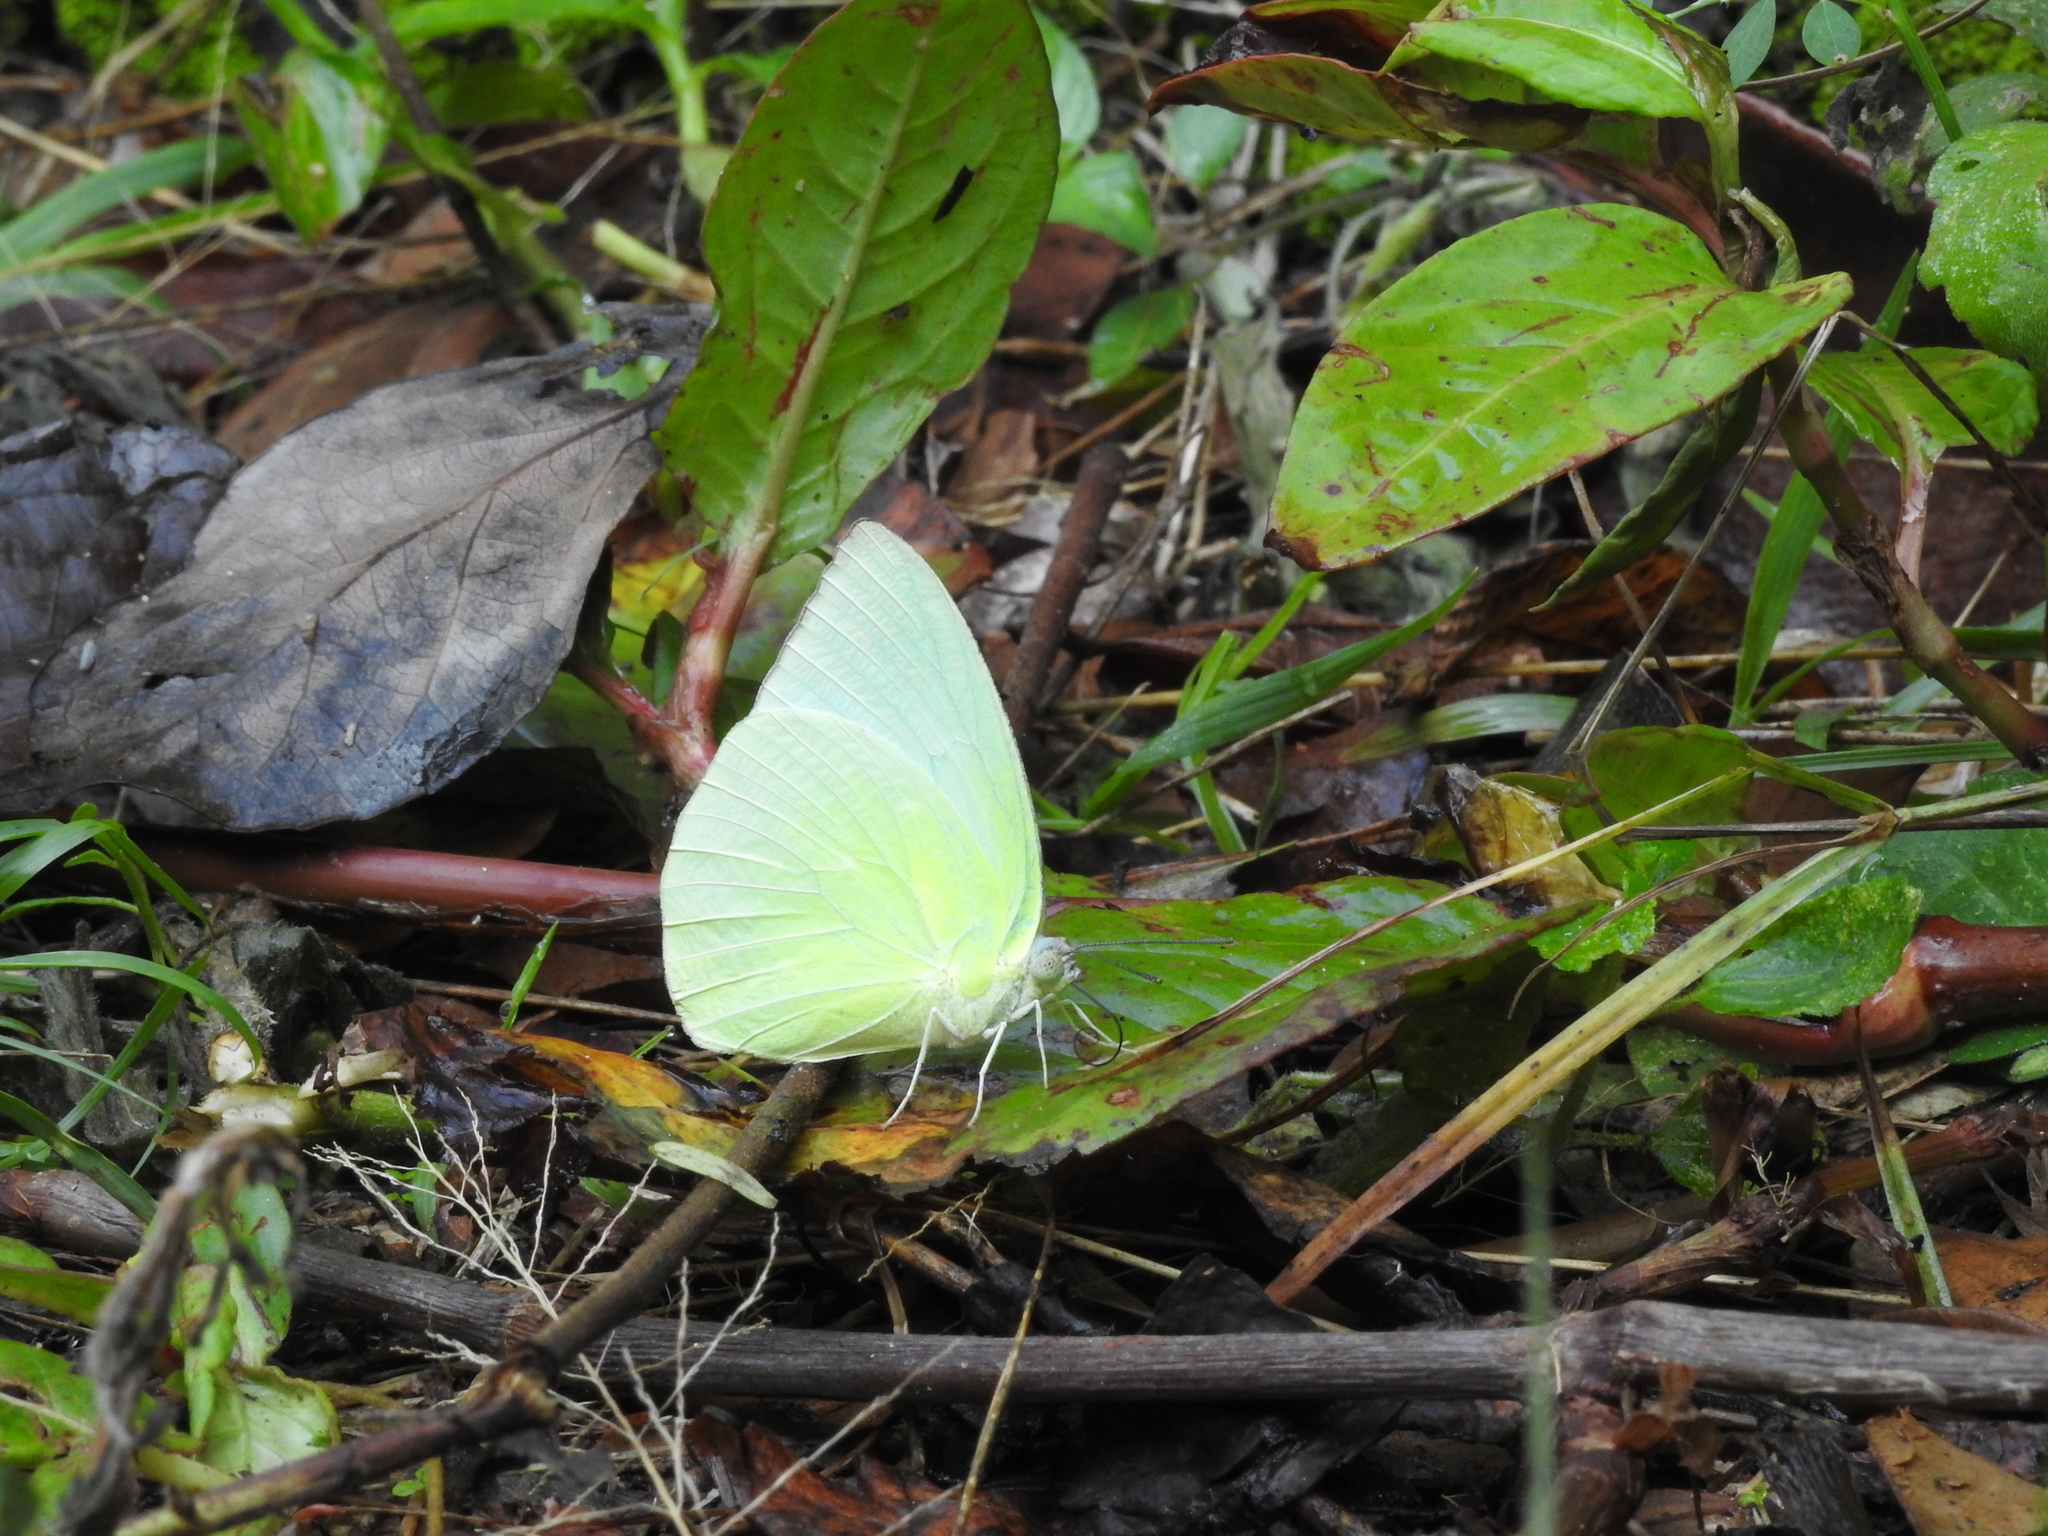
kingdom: Animalia
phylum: Arthropoda
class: Insecta
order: Lepidoptera
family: Pieridae
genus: Catopsilia
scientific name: Catopsilia pomona
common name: Common emigrant
